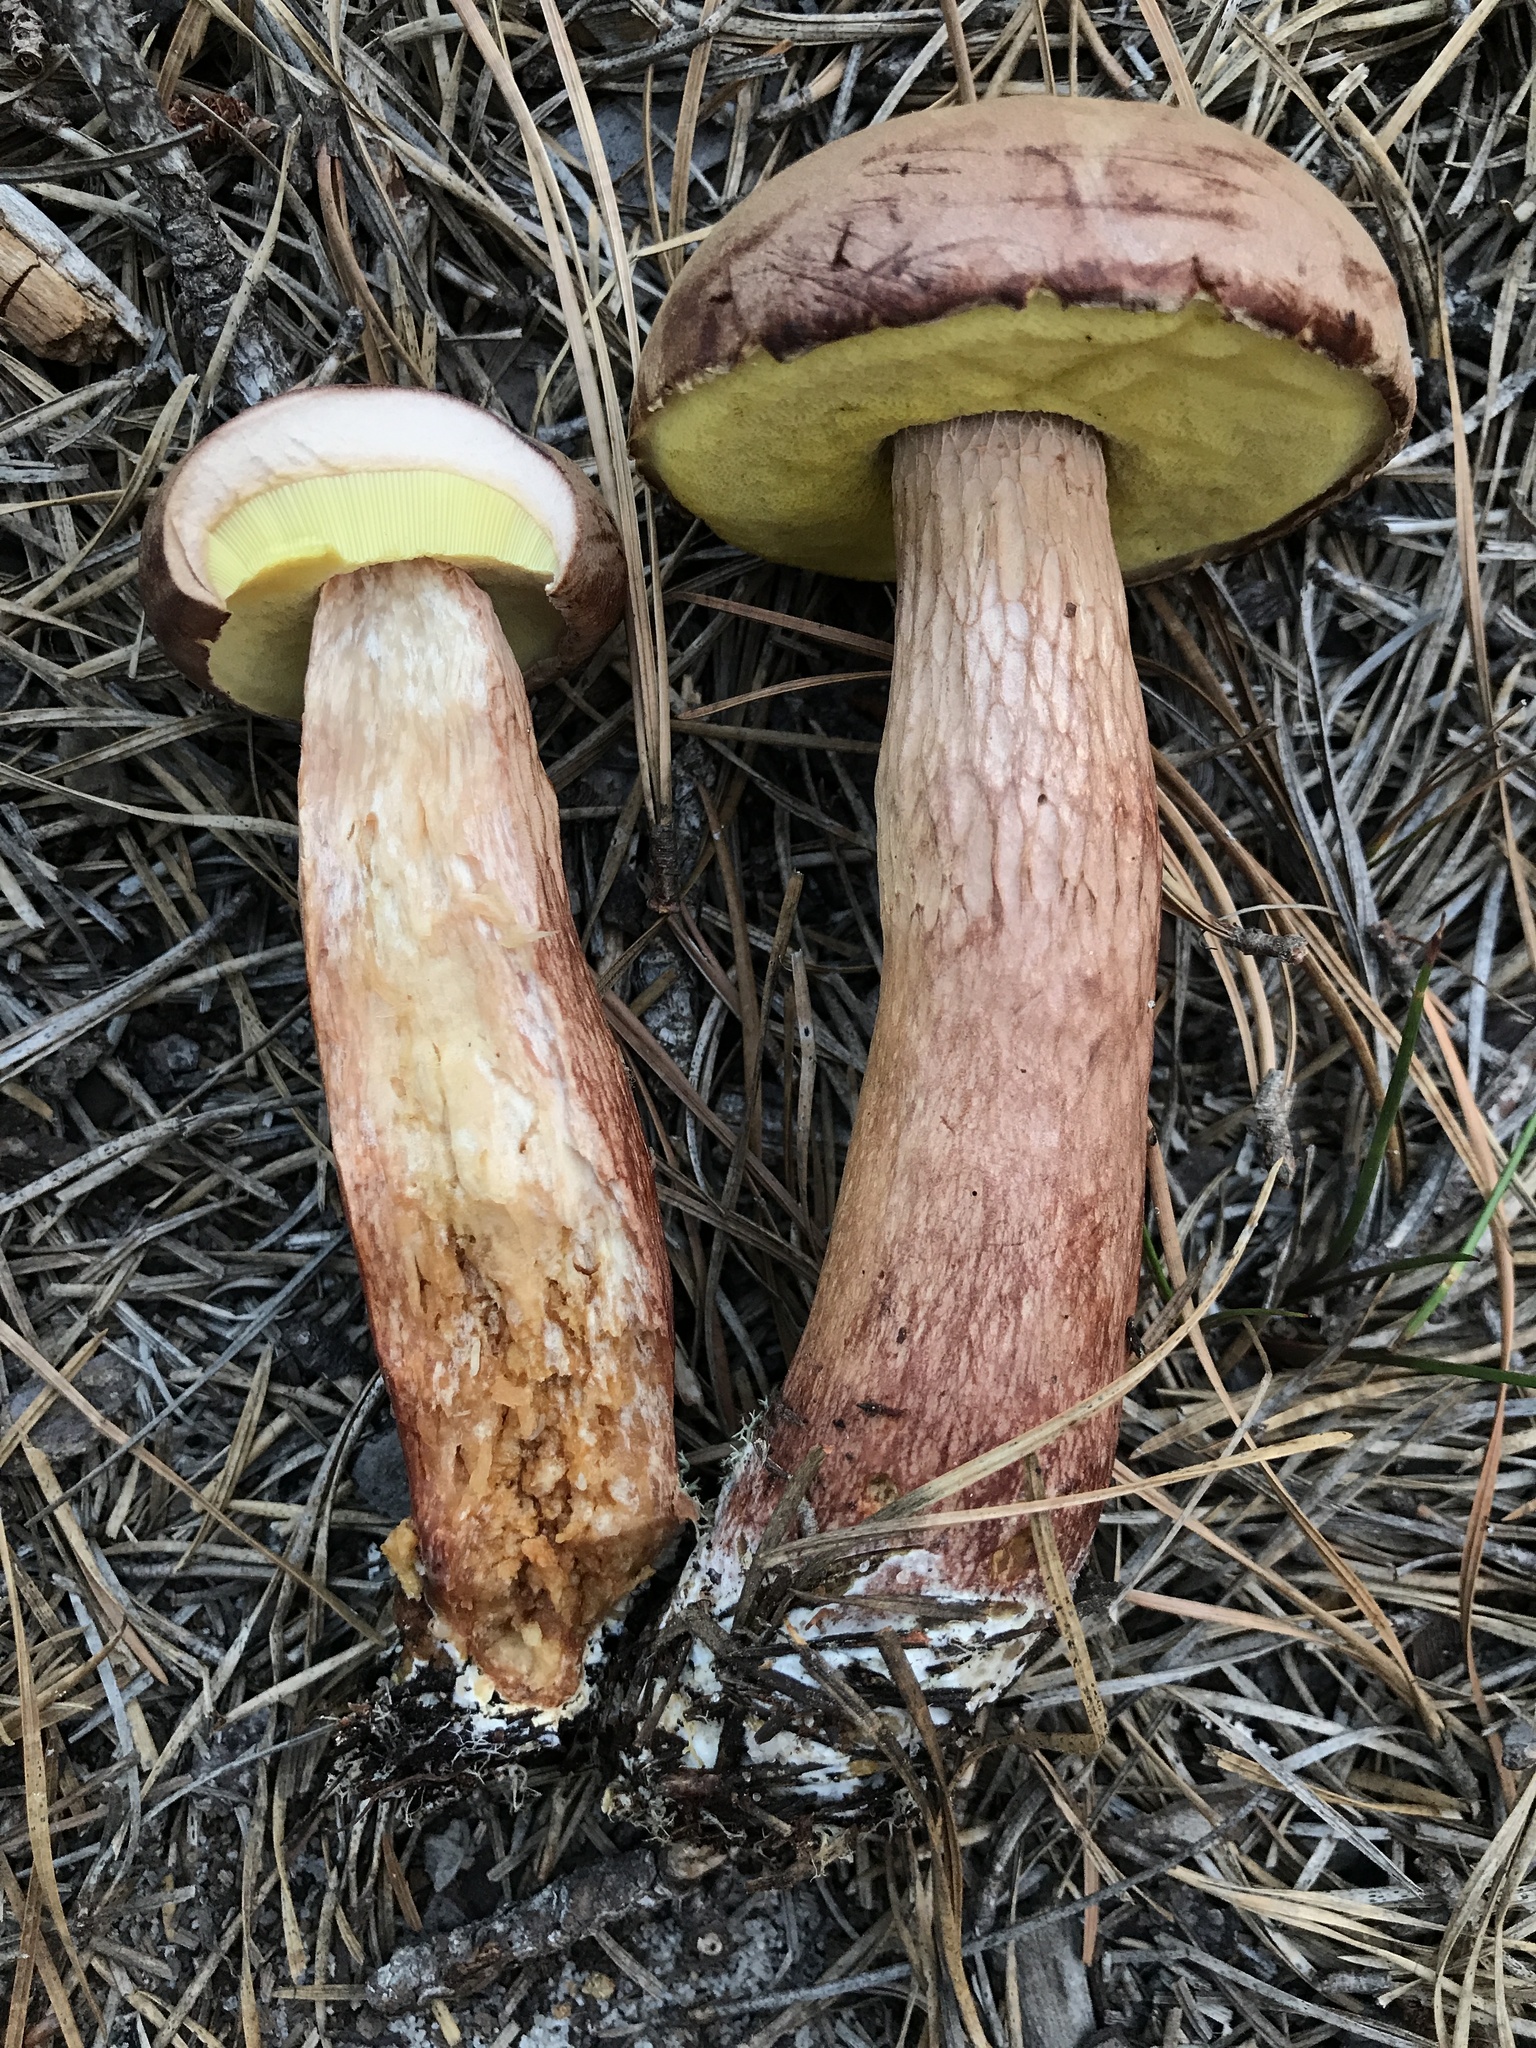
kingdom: Fungi
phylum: Basidiomycota
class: Agaricomycetes
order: Boletales
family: Boletaceae
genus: Aureoboletus
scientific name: Aureoboletus projectellus
